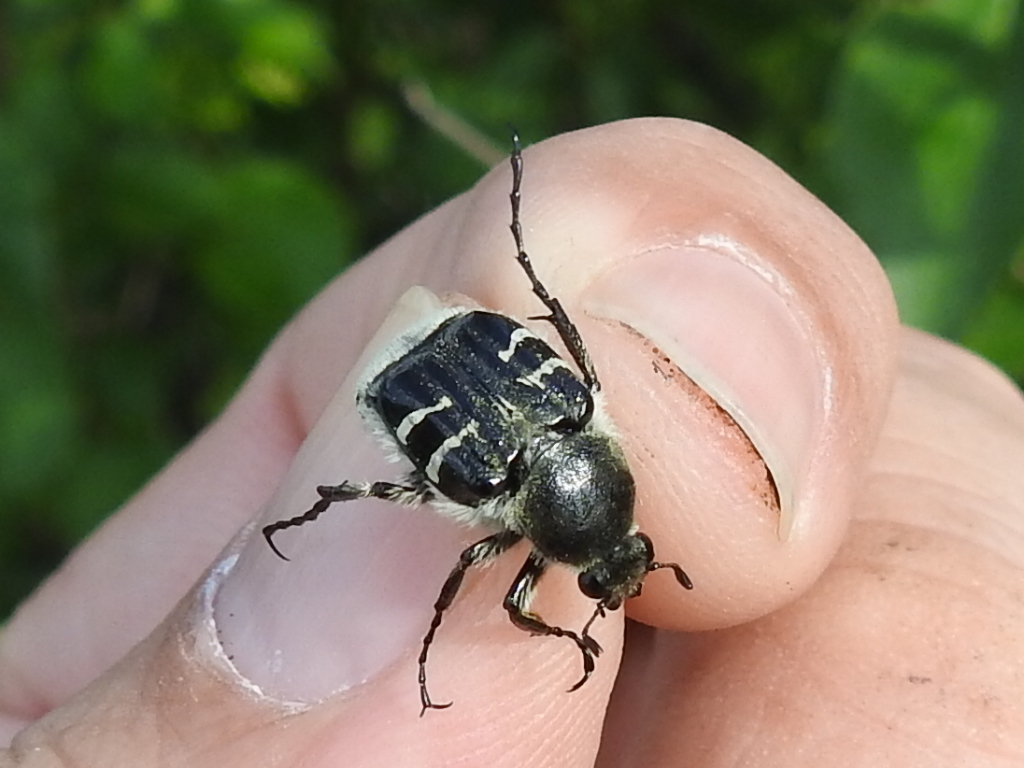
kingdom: Animalia
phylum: Arthropoda
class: Insecta
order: Coleoptera
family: Scarabaeidae
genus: Trichiotinus
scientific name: Trichiotinus texanus
